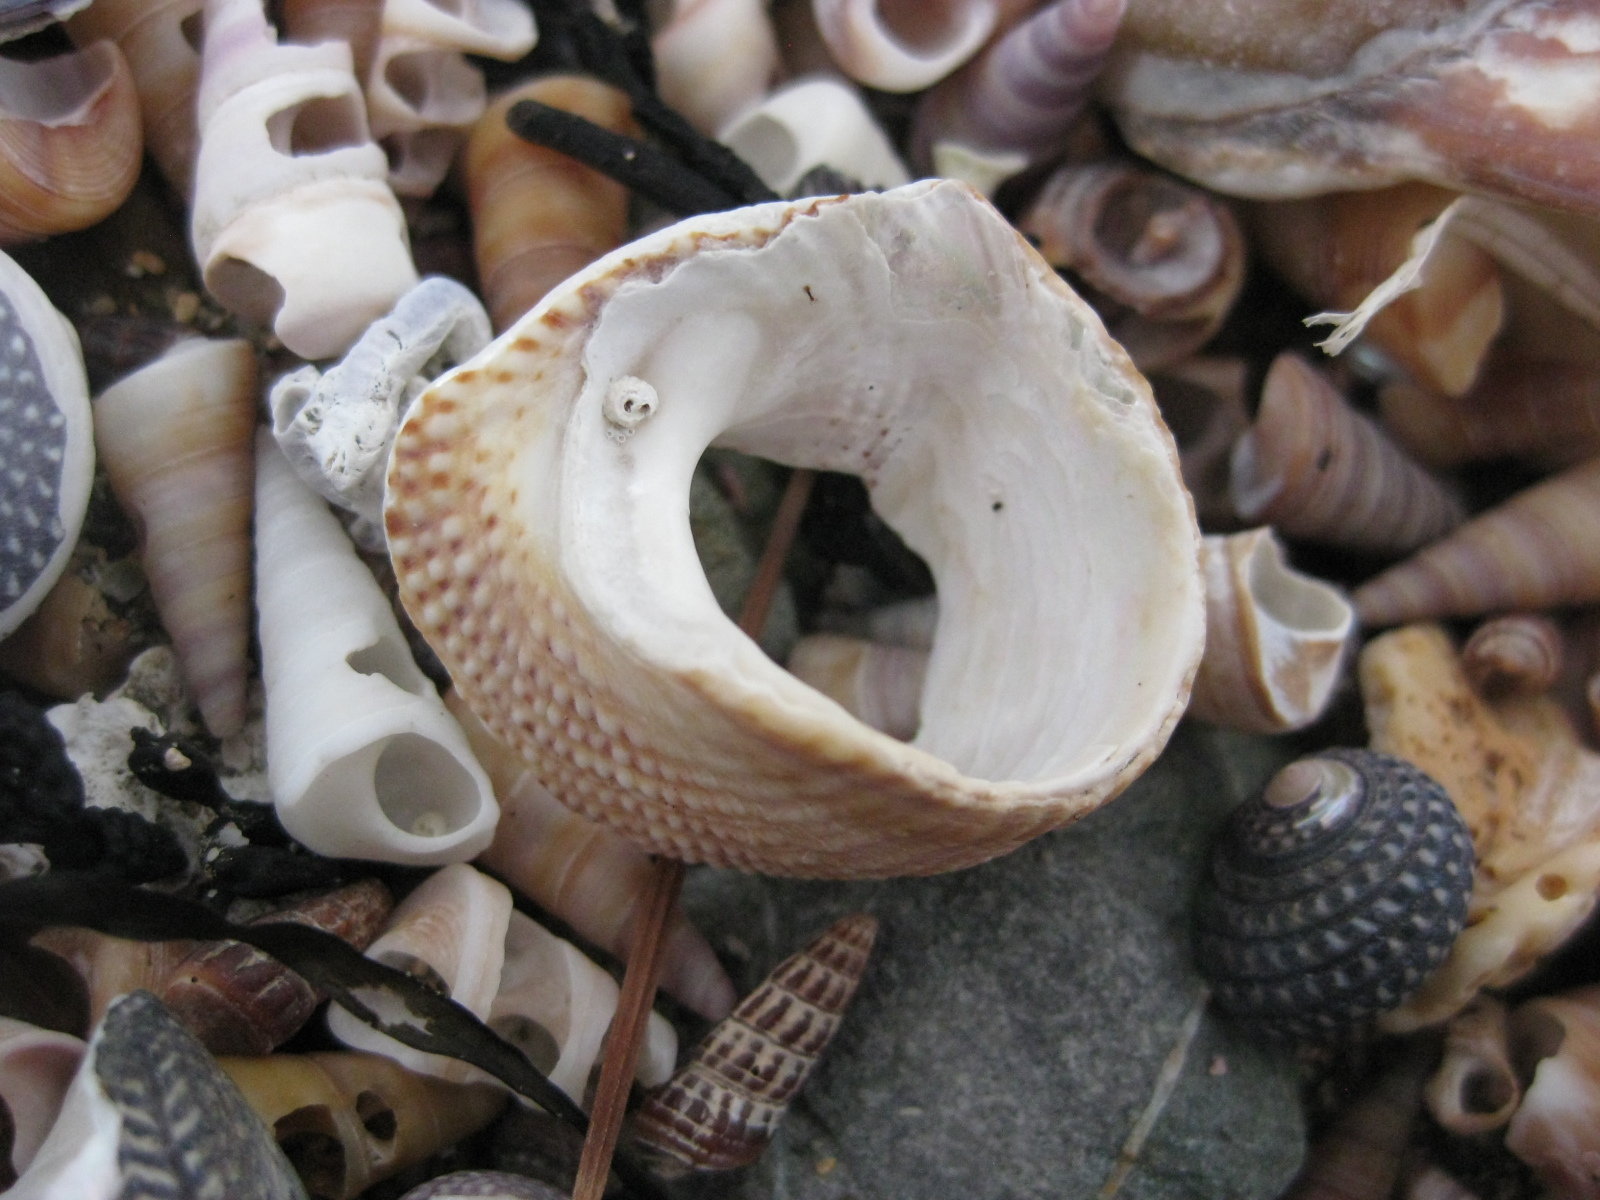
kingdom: Animalia
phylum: Mollusca
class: Gastropoda
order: Trochida
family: Calliostomatidae
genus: Maurea
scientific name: Maurea punctulata
